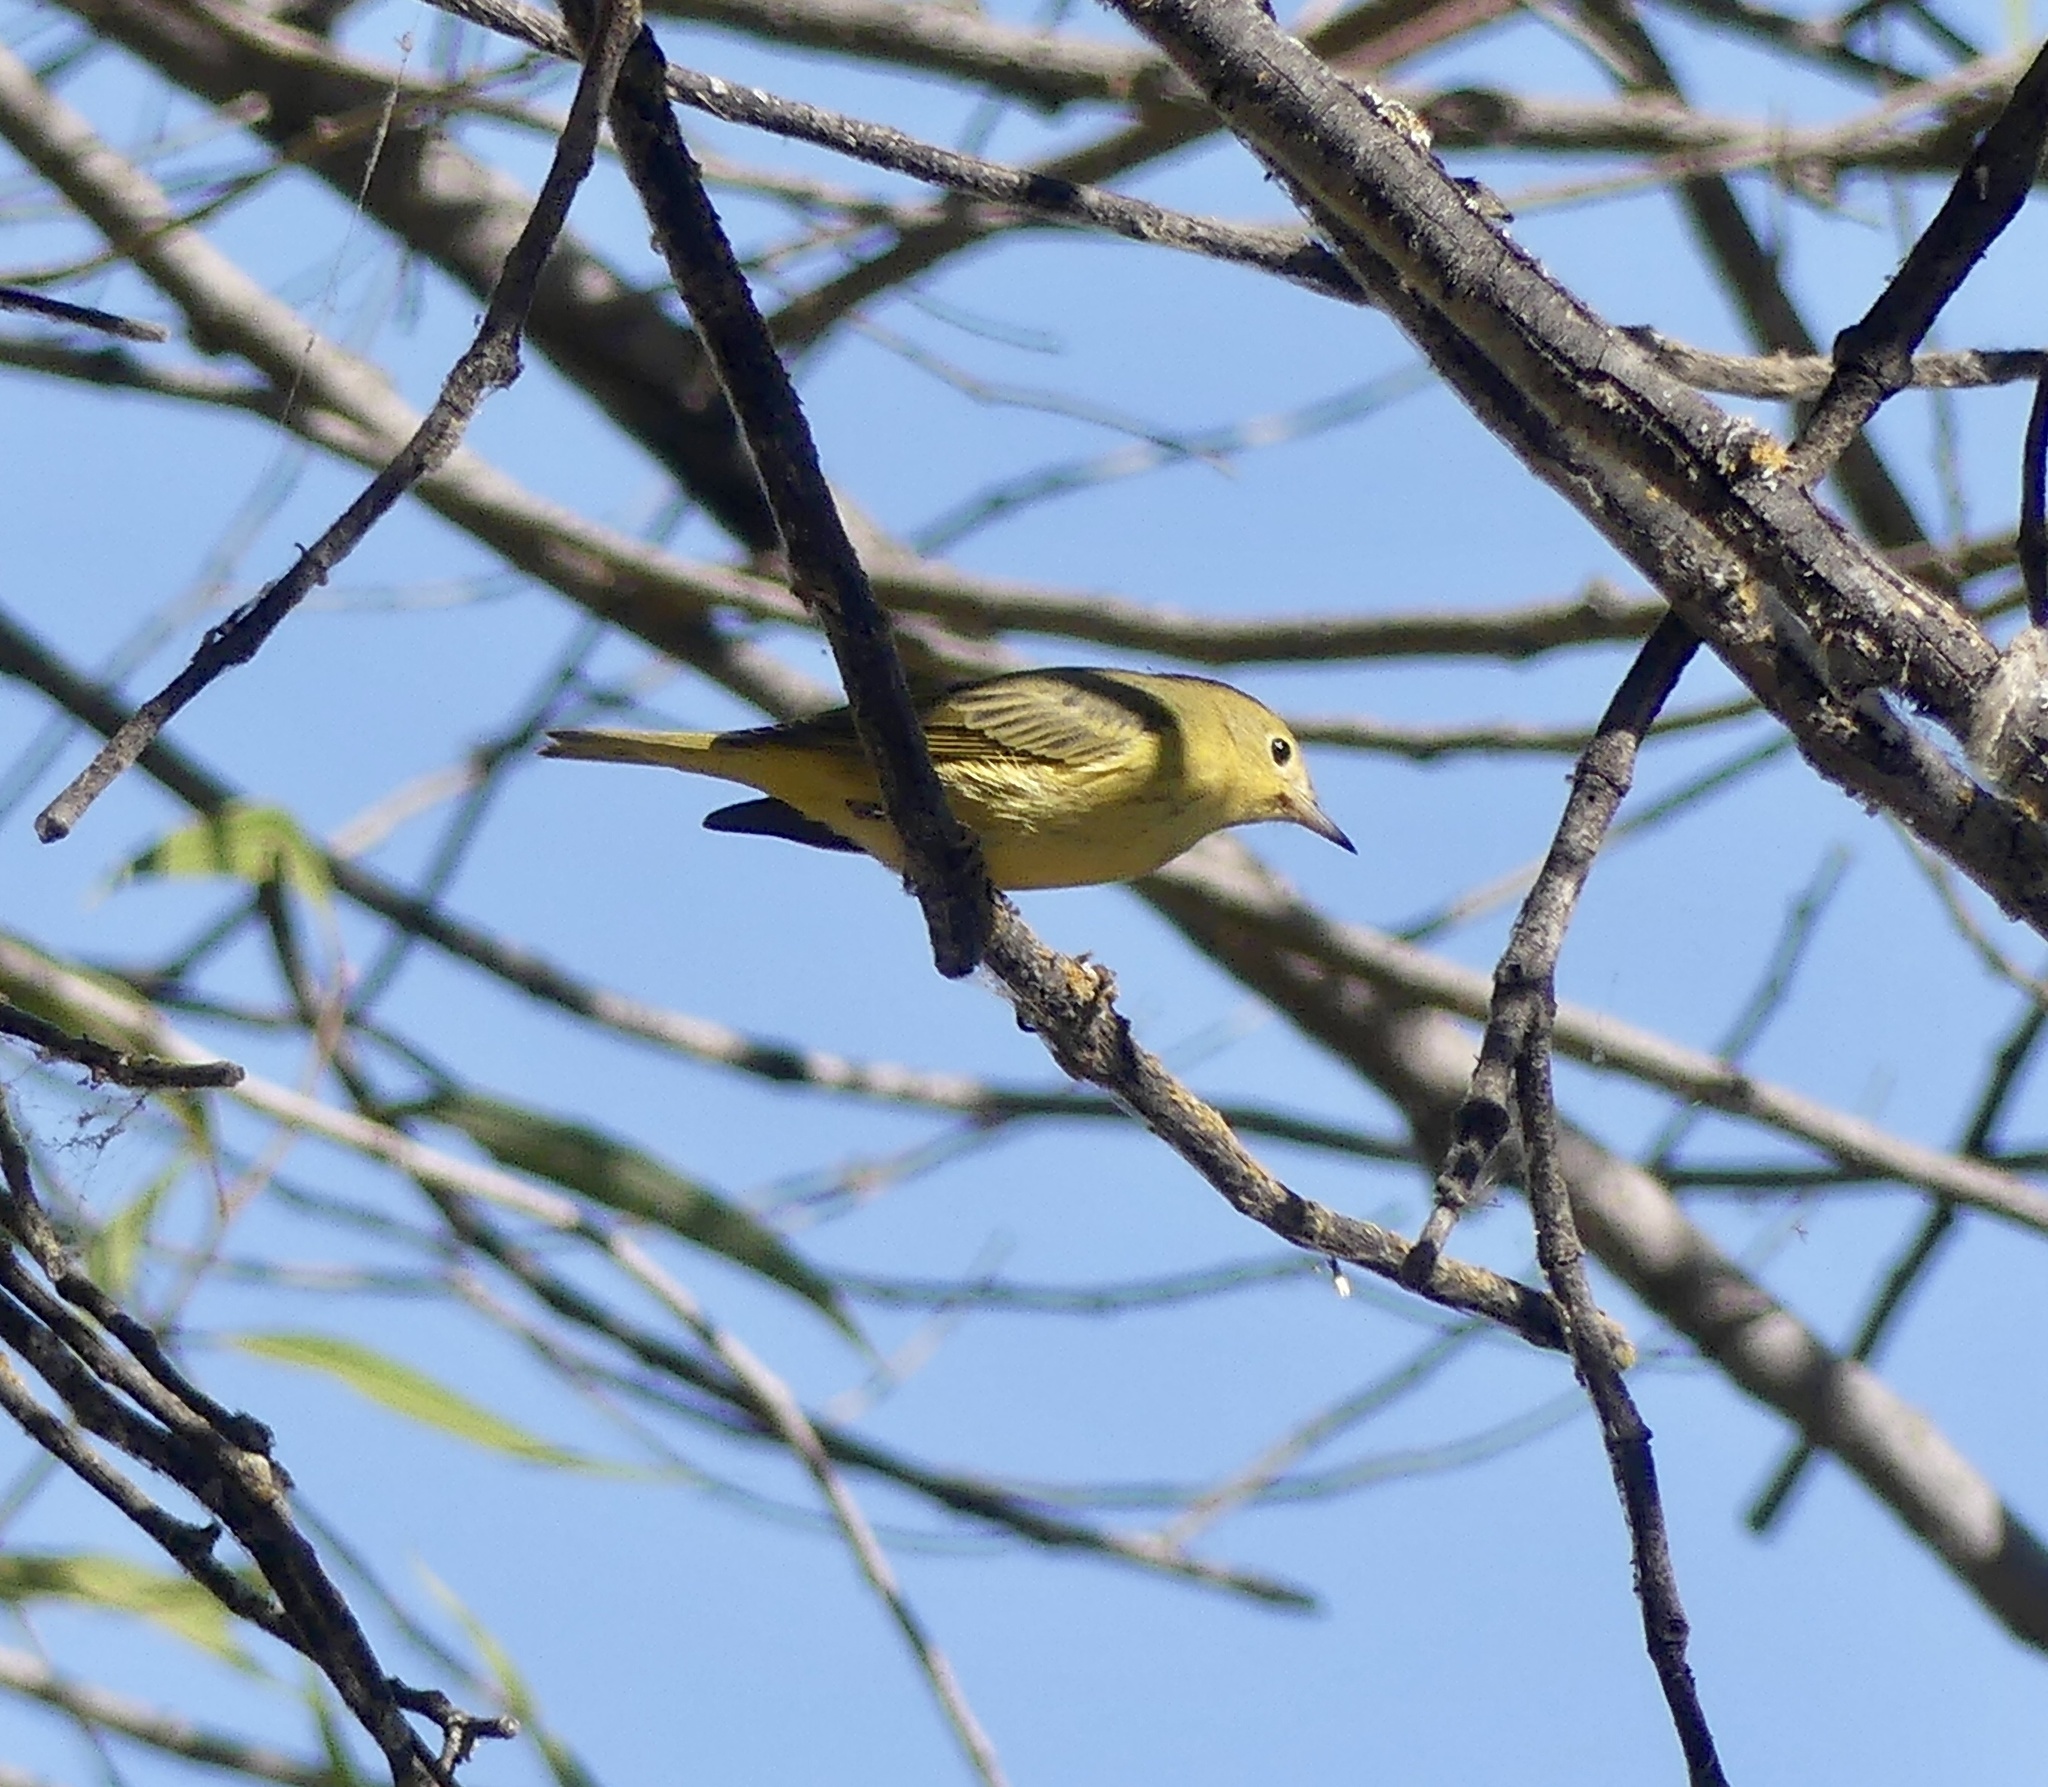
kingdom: Animalia
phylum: Chordata
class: Aves
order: Passeriformes
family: Parulidae
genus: Setophaga
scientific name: Setophaga petechia
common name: Yellow warbler
